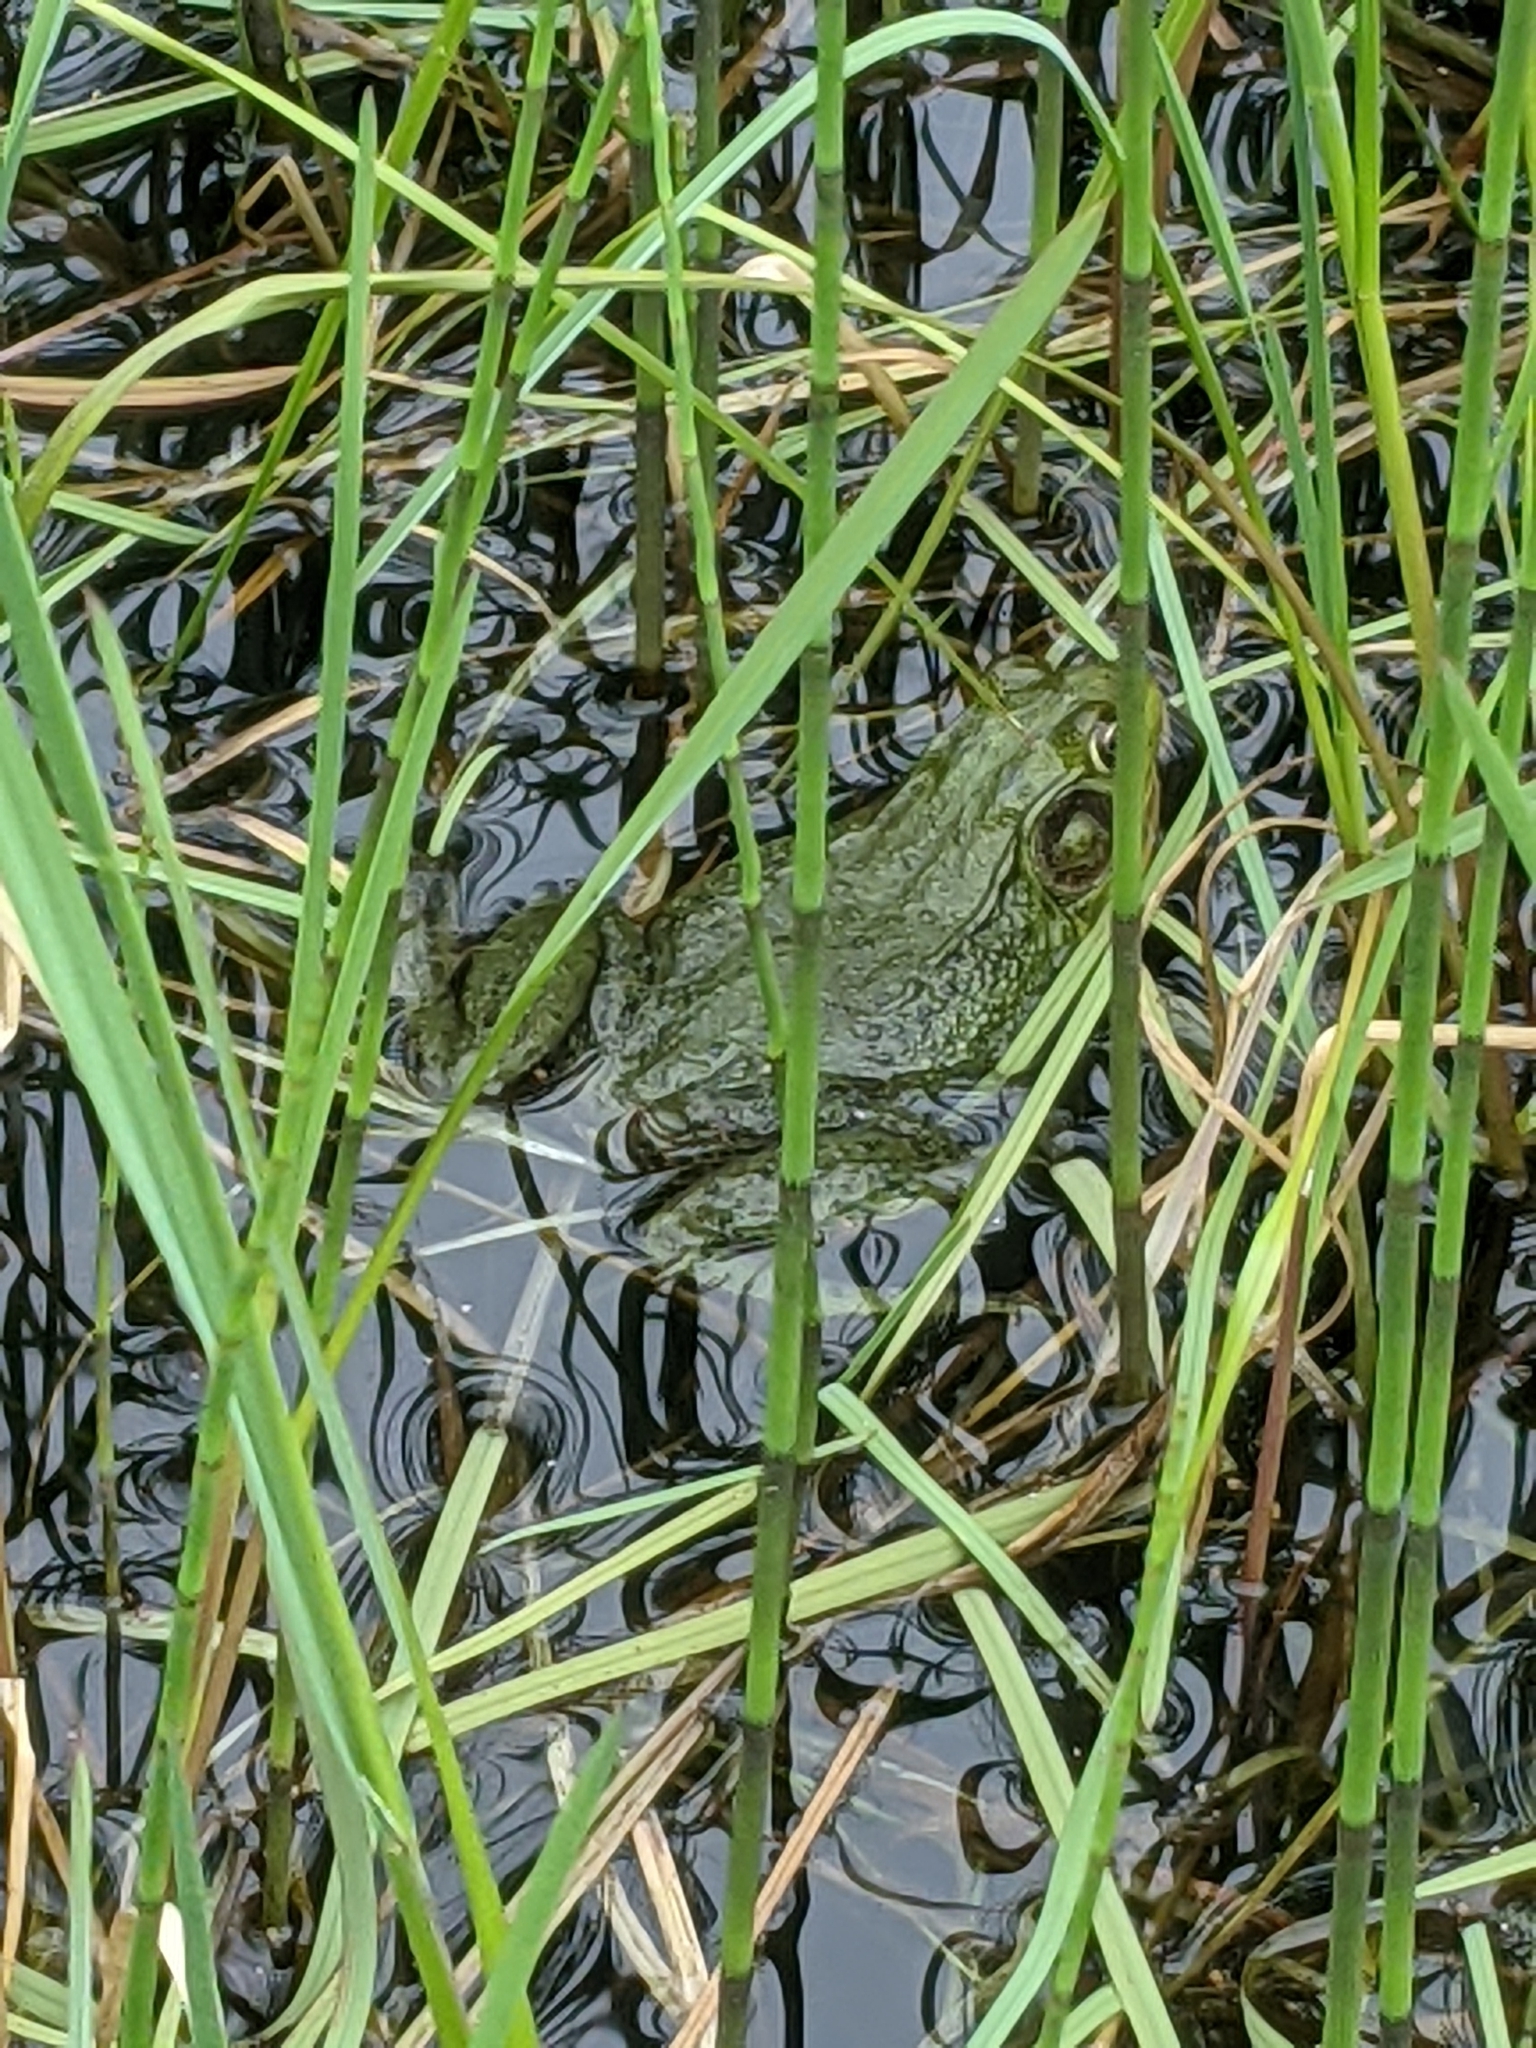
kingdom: Animalia
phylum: Chordata
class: Amphibia
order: Anura
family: Ranidae
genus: Lithobates
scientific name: Lithobates clamitans
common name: Green frog
